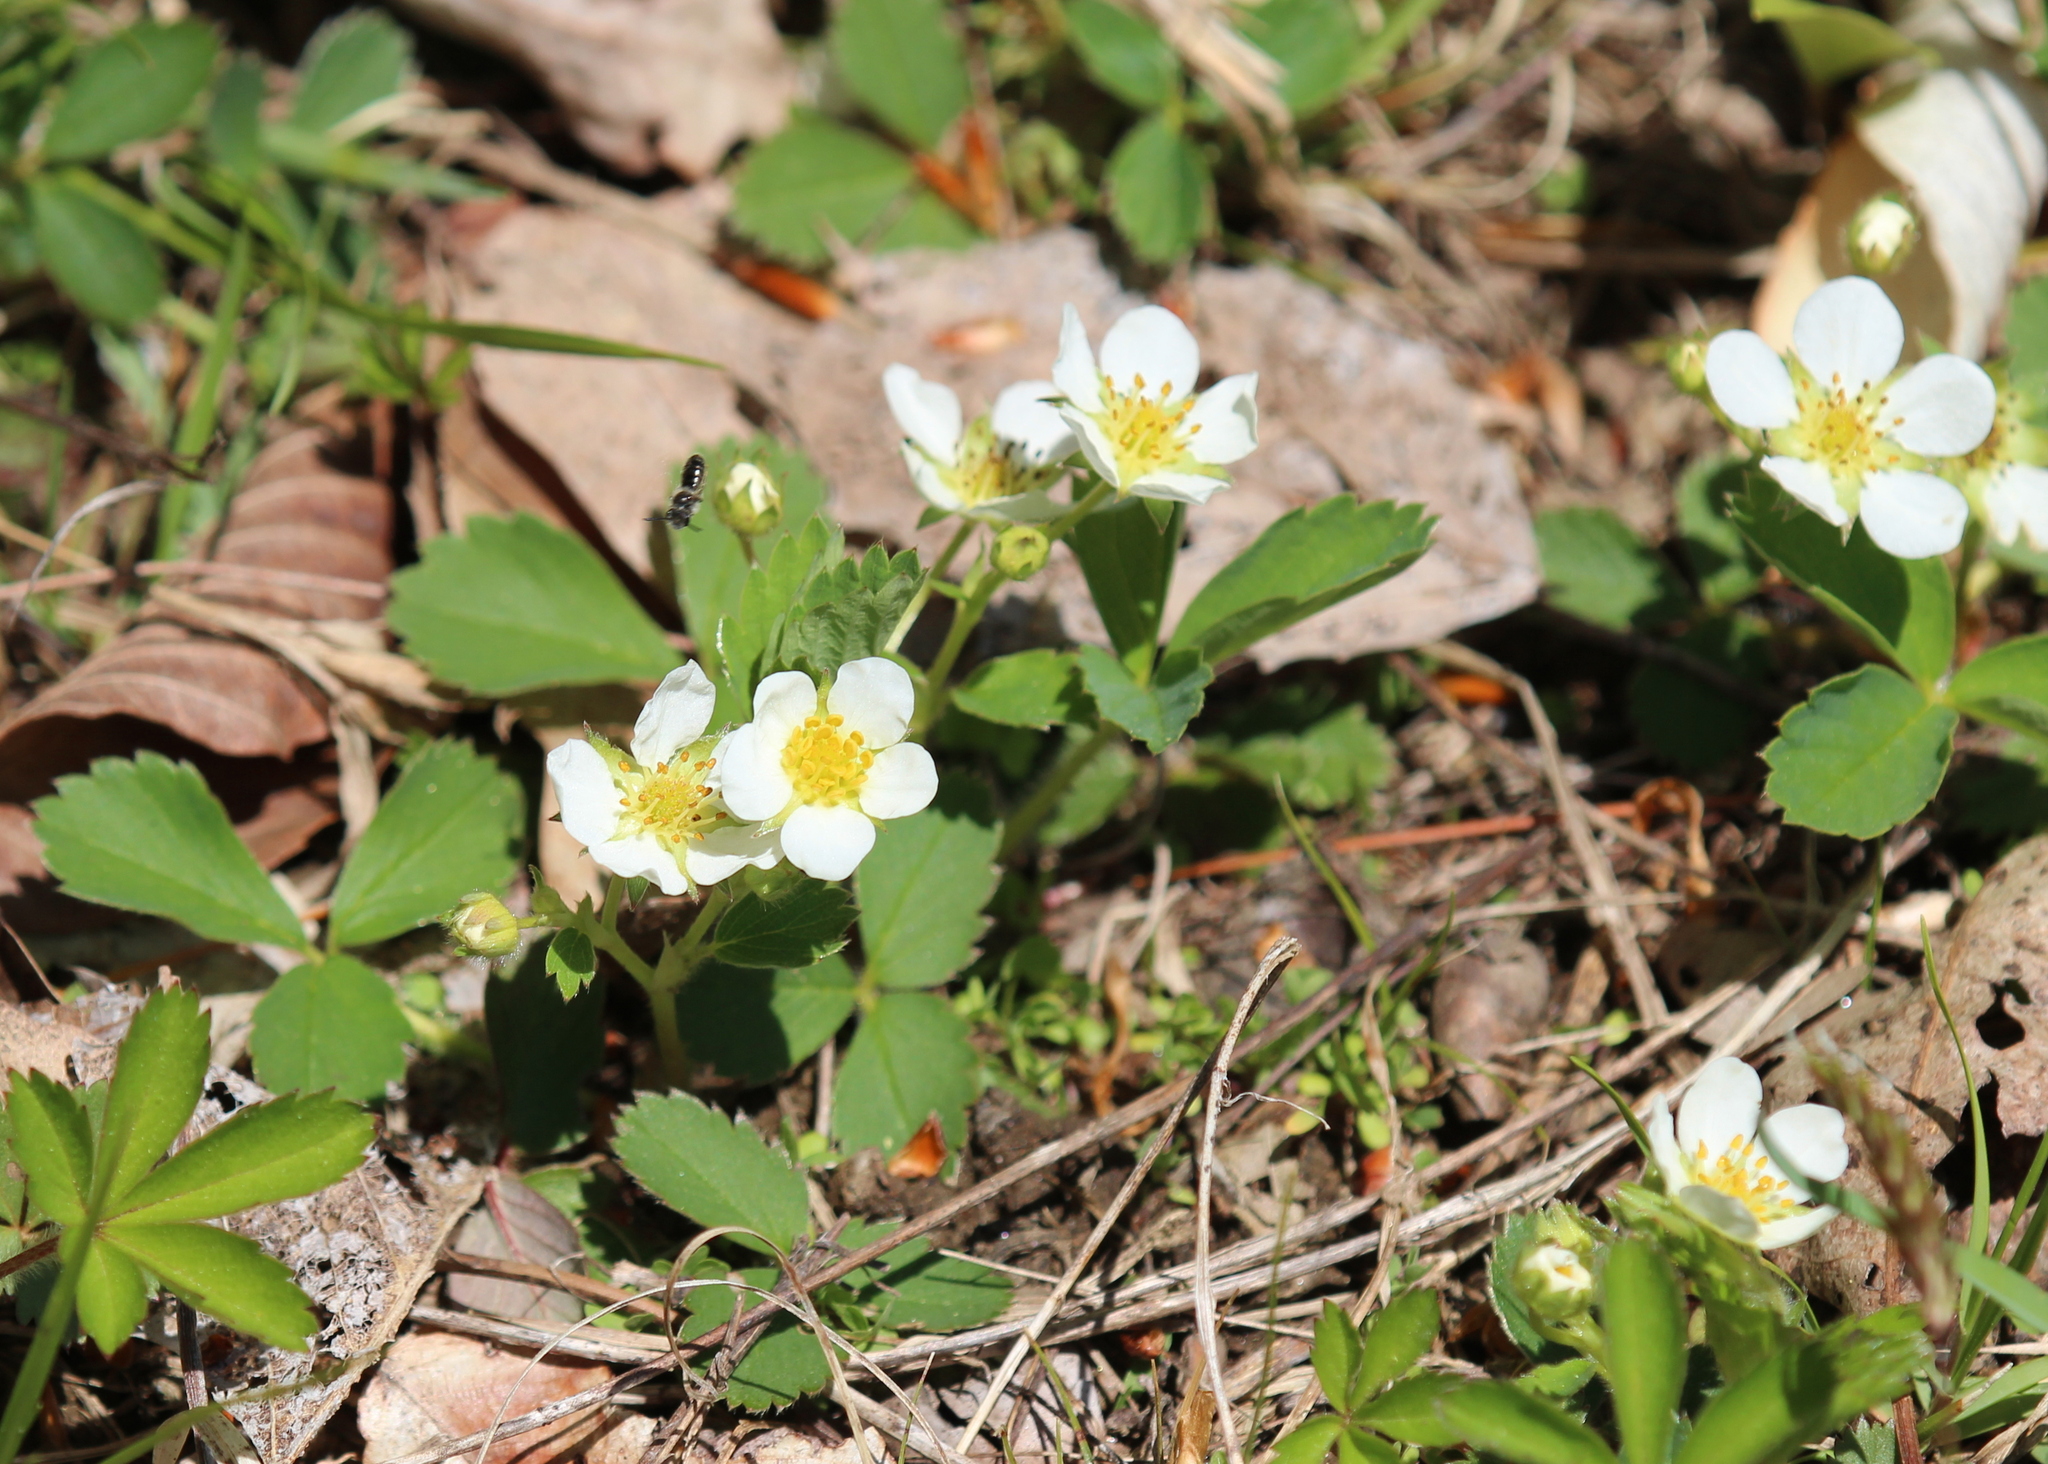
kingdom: Plantae
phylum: Tracheophyta
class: Magnoliopsida
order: Rosales
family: Rosaceae
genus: Fragaria
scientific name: Fragaria virginiana
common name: Thickleaved wild strawberry
